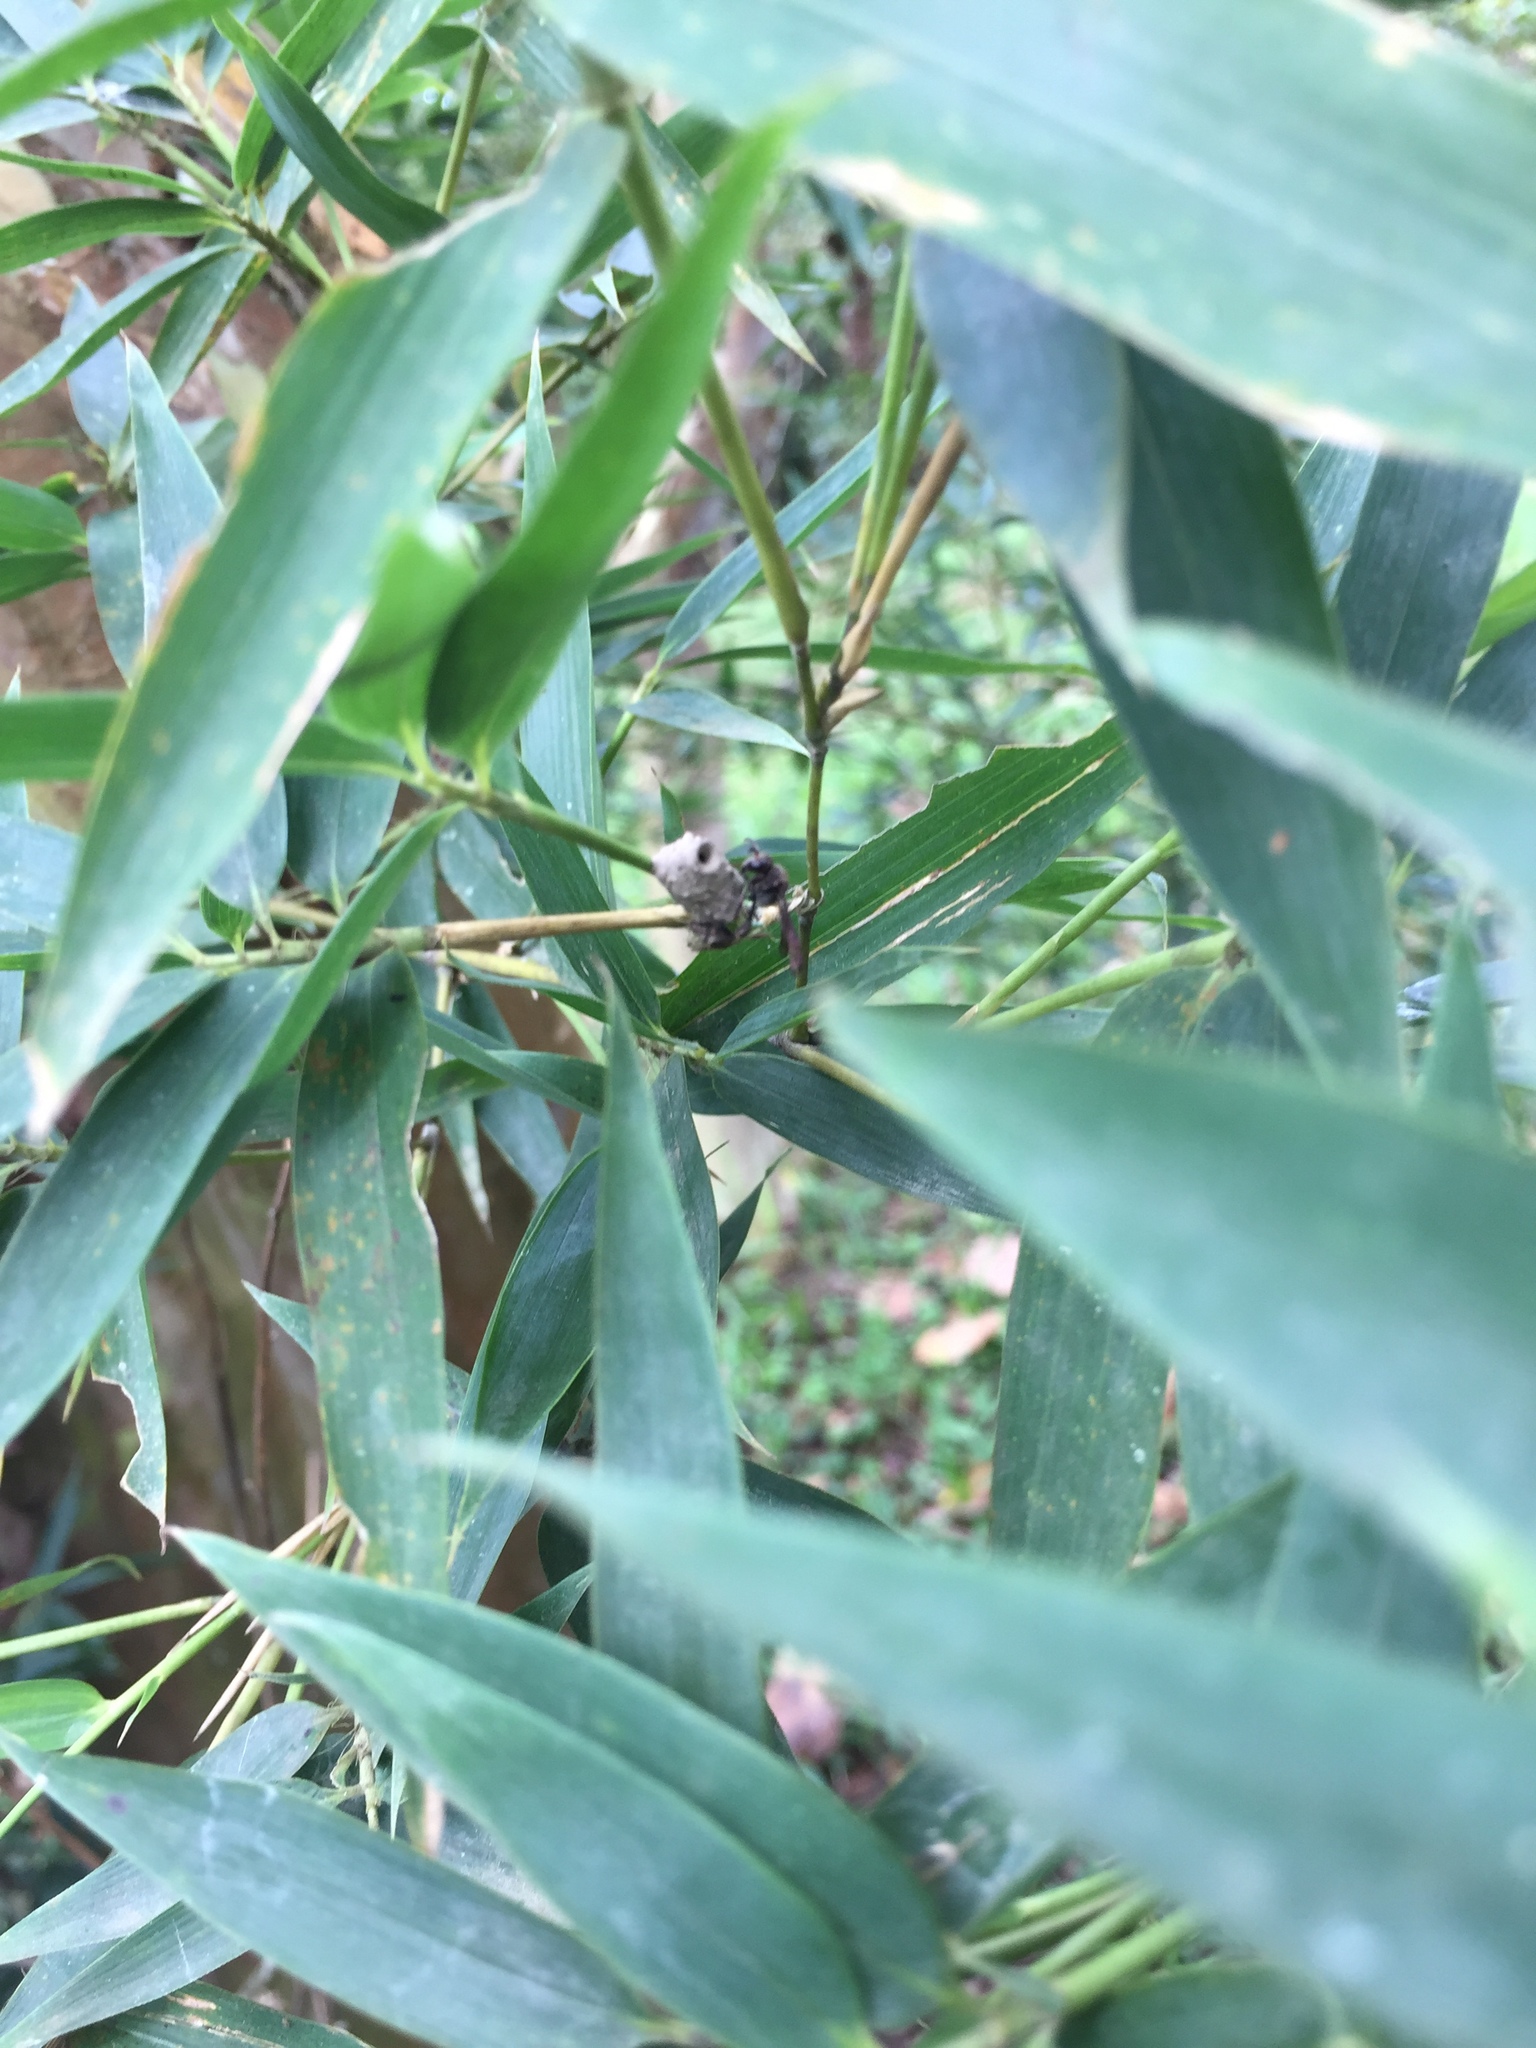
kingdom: Animalia
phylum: Arthropoda
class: Insecta
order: Hymenoptera
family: Vespidae
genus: Eumenes
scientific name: Eumenes
